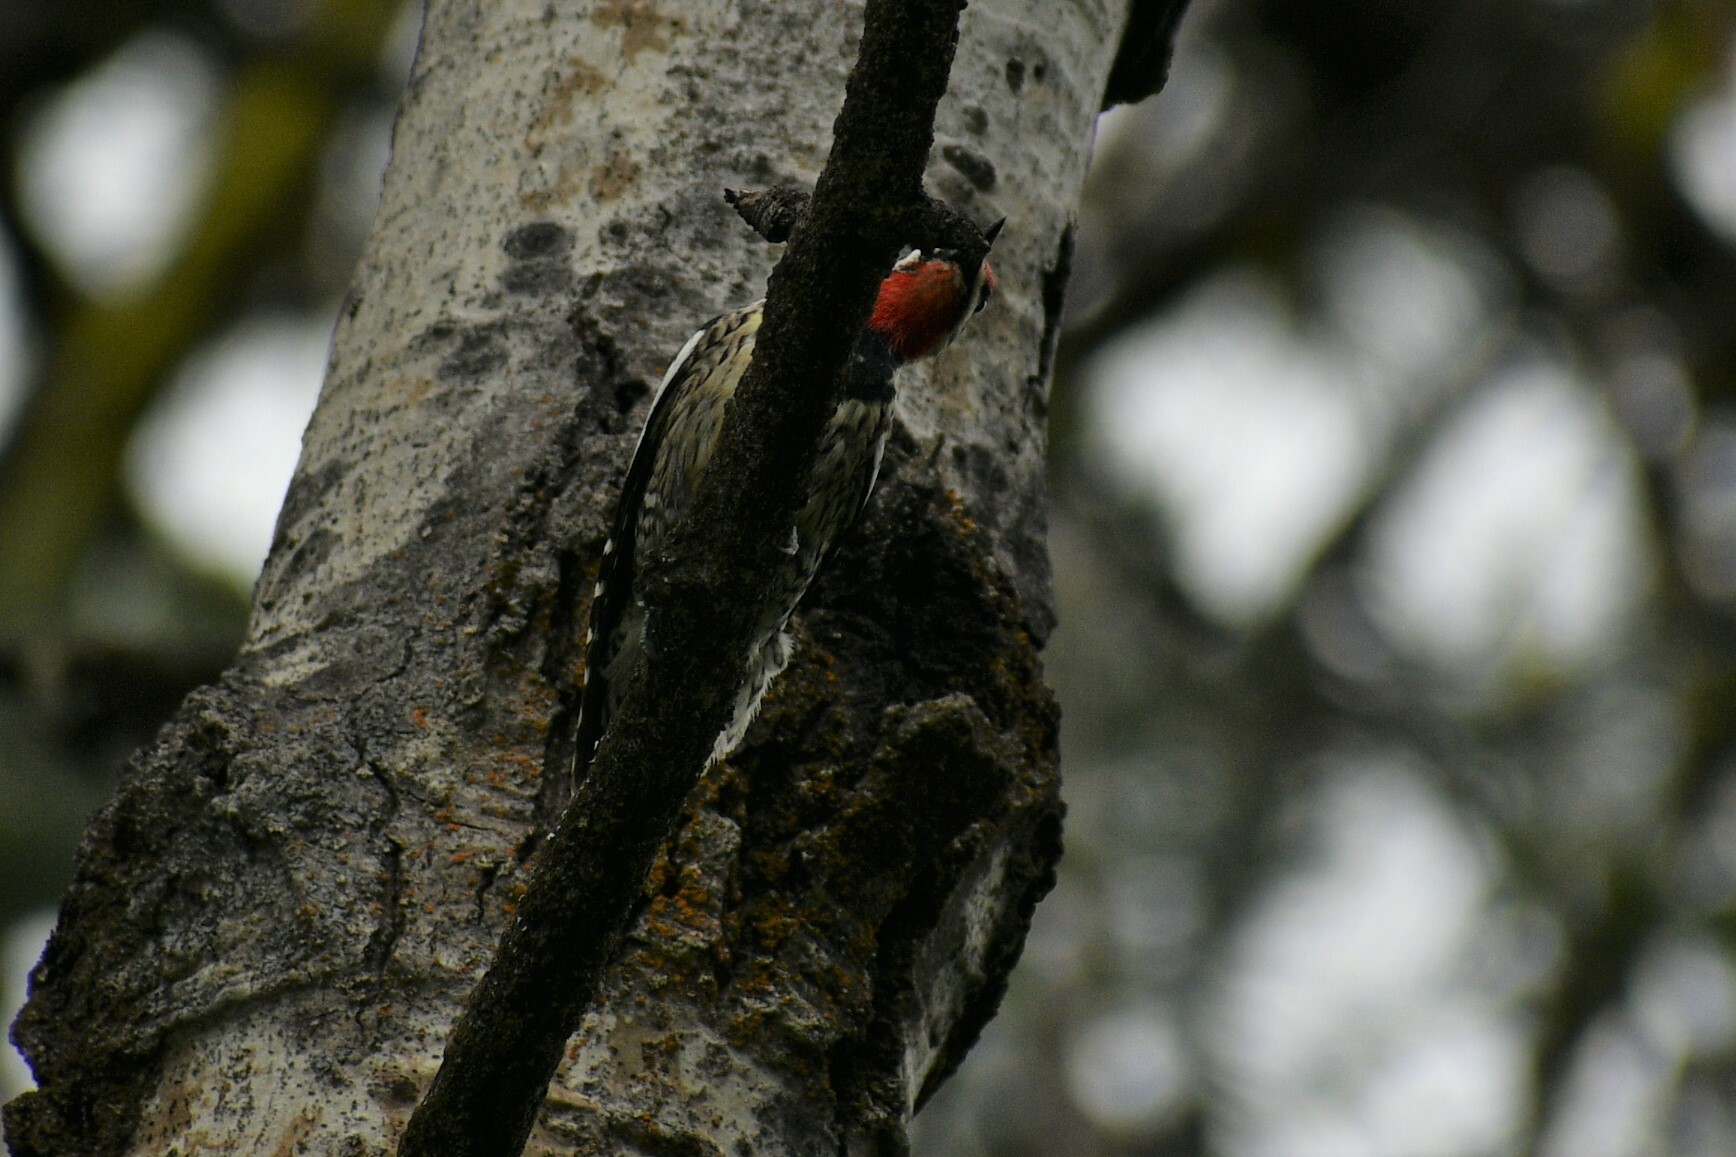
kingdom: Animalia
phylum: Chordata
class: Aves
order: Piciformes
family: Picidae
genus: Sphyrapicus
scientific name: Sphyrapicus nuchalis
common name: Red-naped sapsucker
